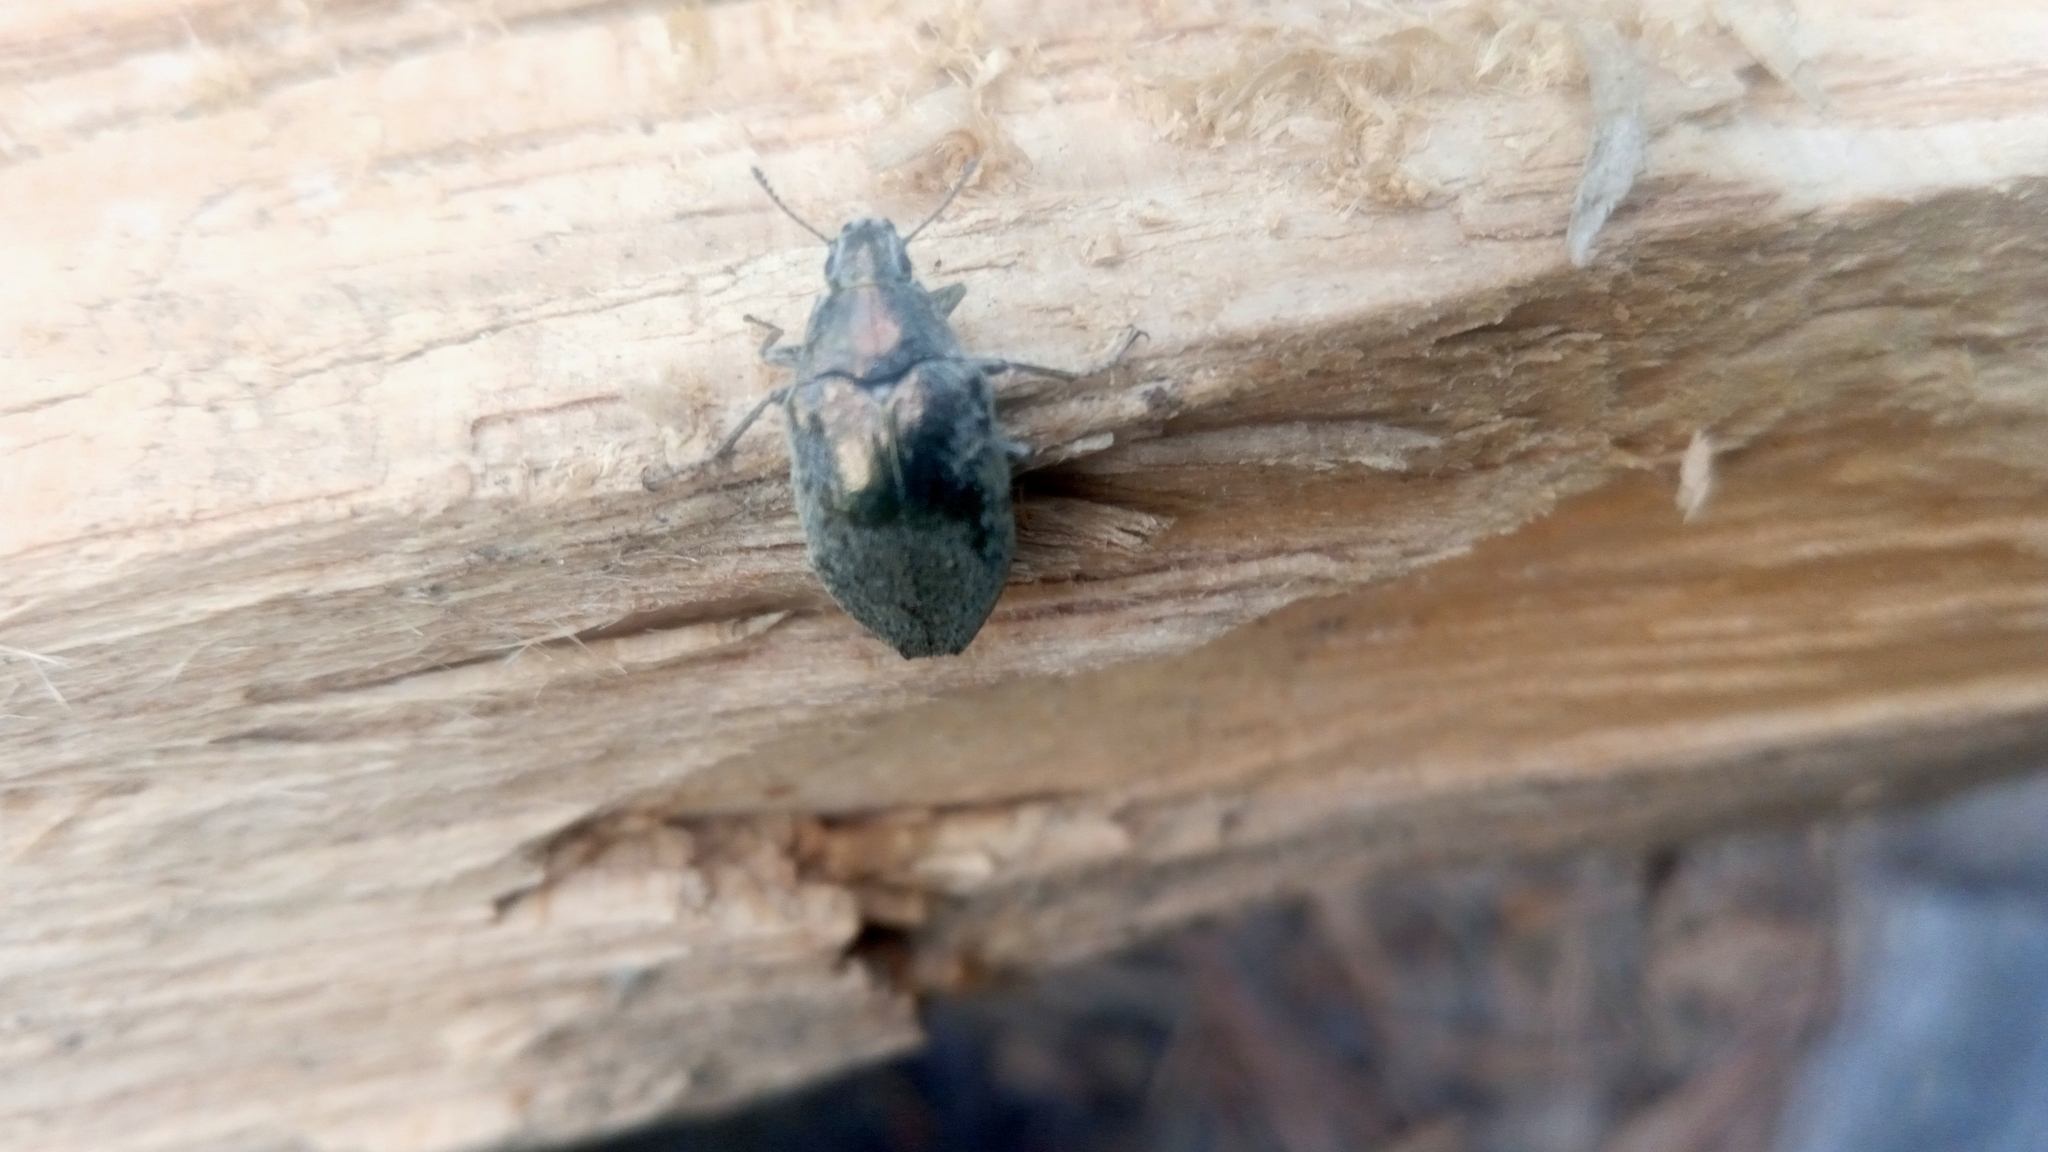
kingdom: Animalia
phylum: Arthropoda
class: Insecta
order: Coleoptera
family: Tenebrionidae
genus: Cyrtomius
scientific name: Cyrtomius plicatus
